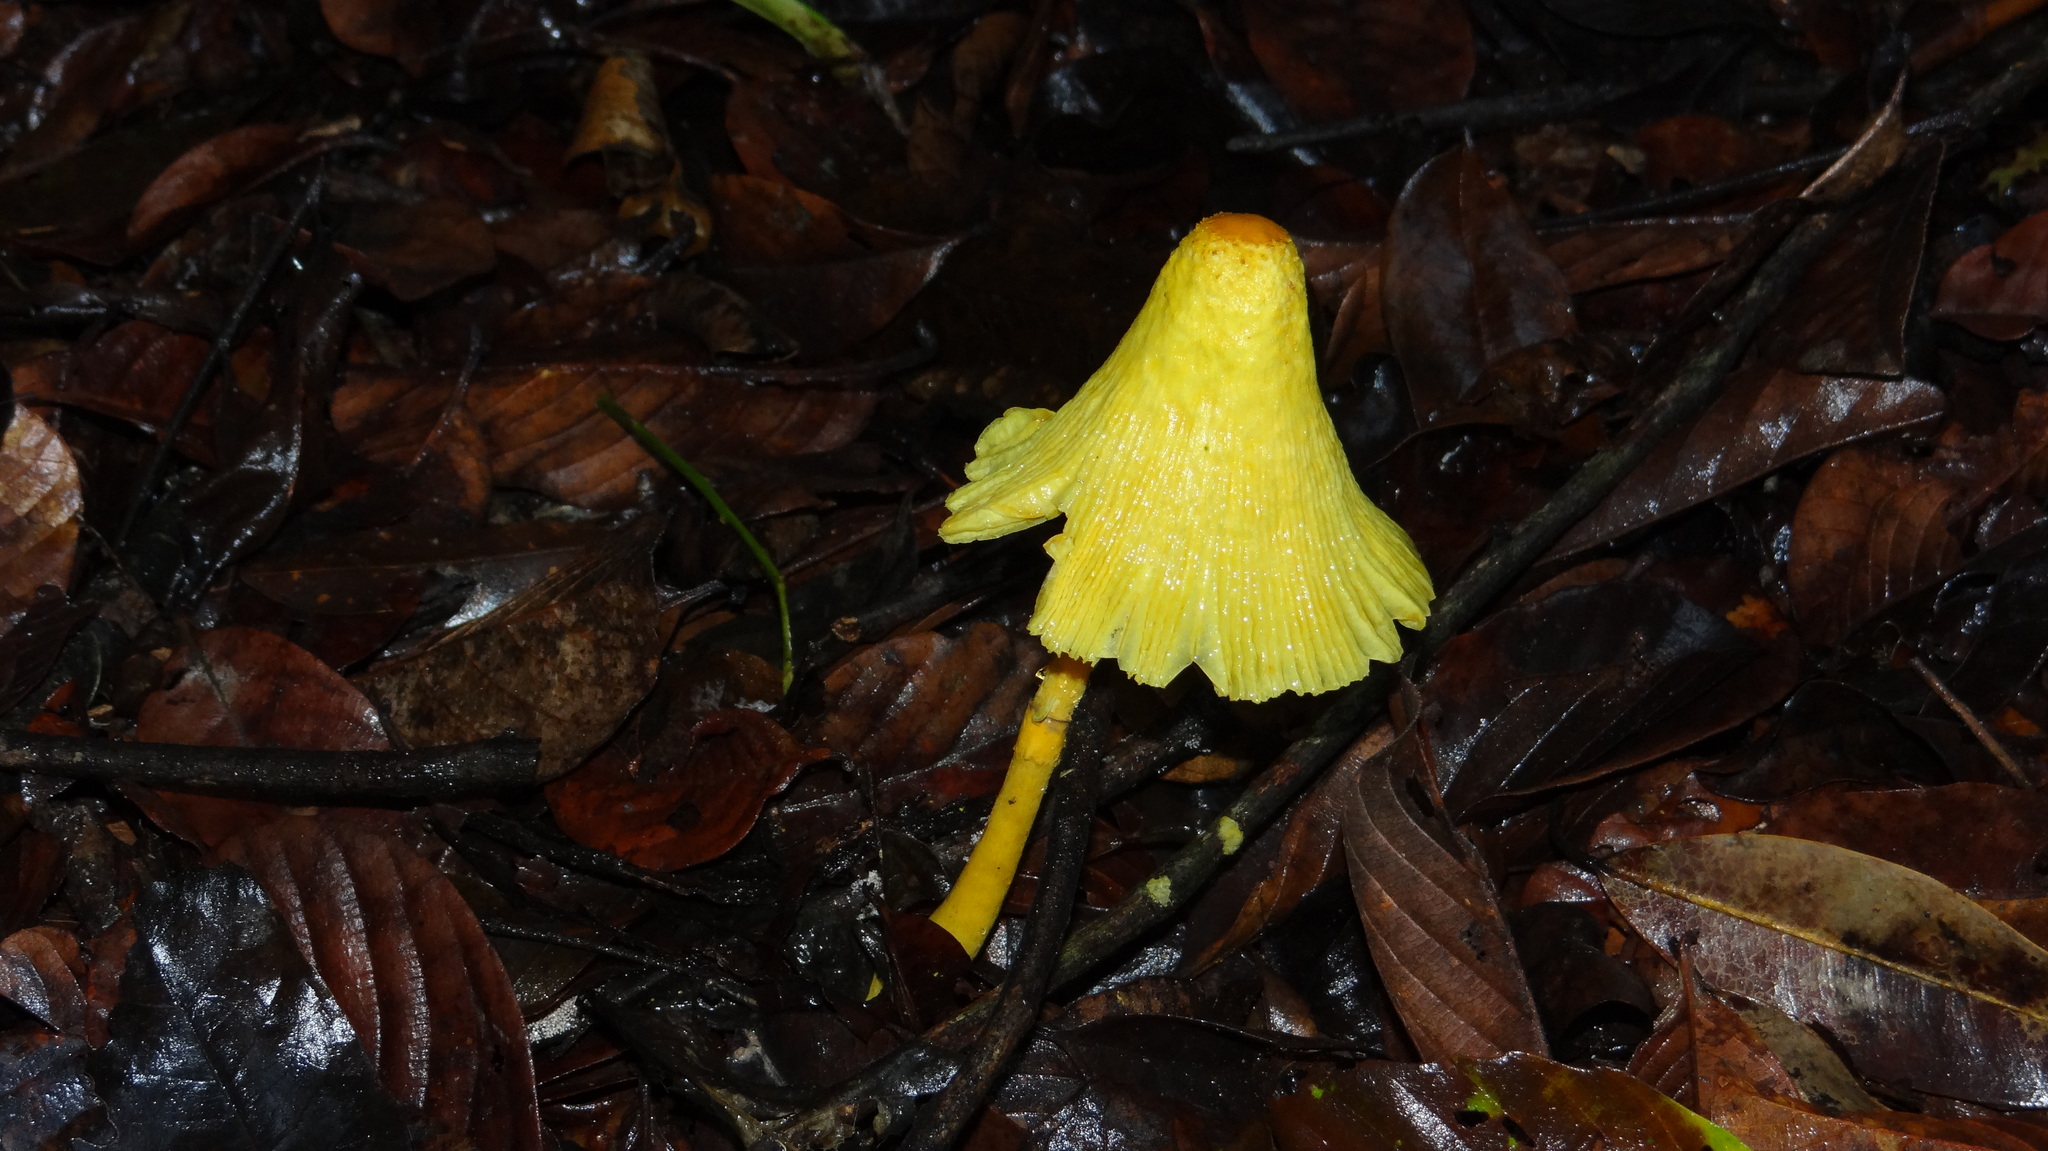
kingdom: Fungi
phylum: Basidiomycota
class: Agaricomycetes
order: Agaricales
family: Agaricaceae
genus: Leucocoprinus
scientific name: Leucocoprinus birnbaumii
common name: Plantpot dapperling
